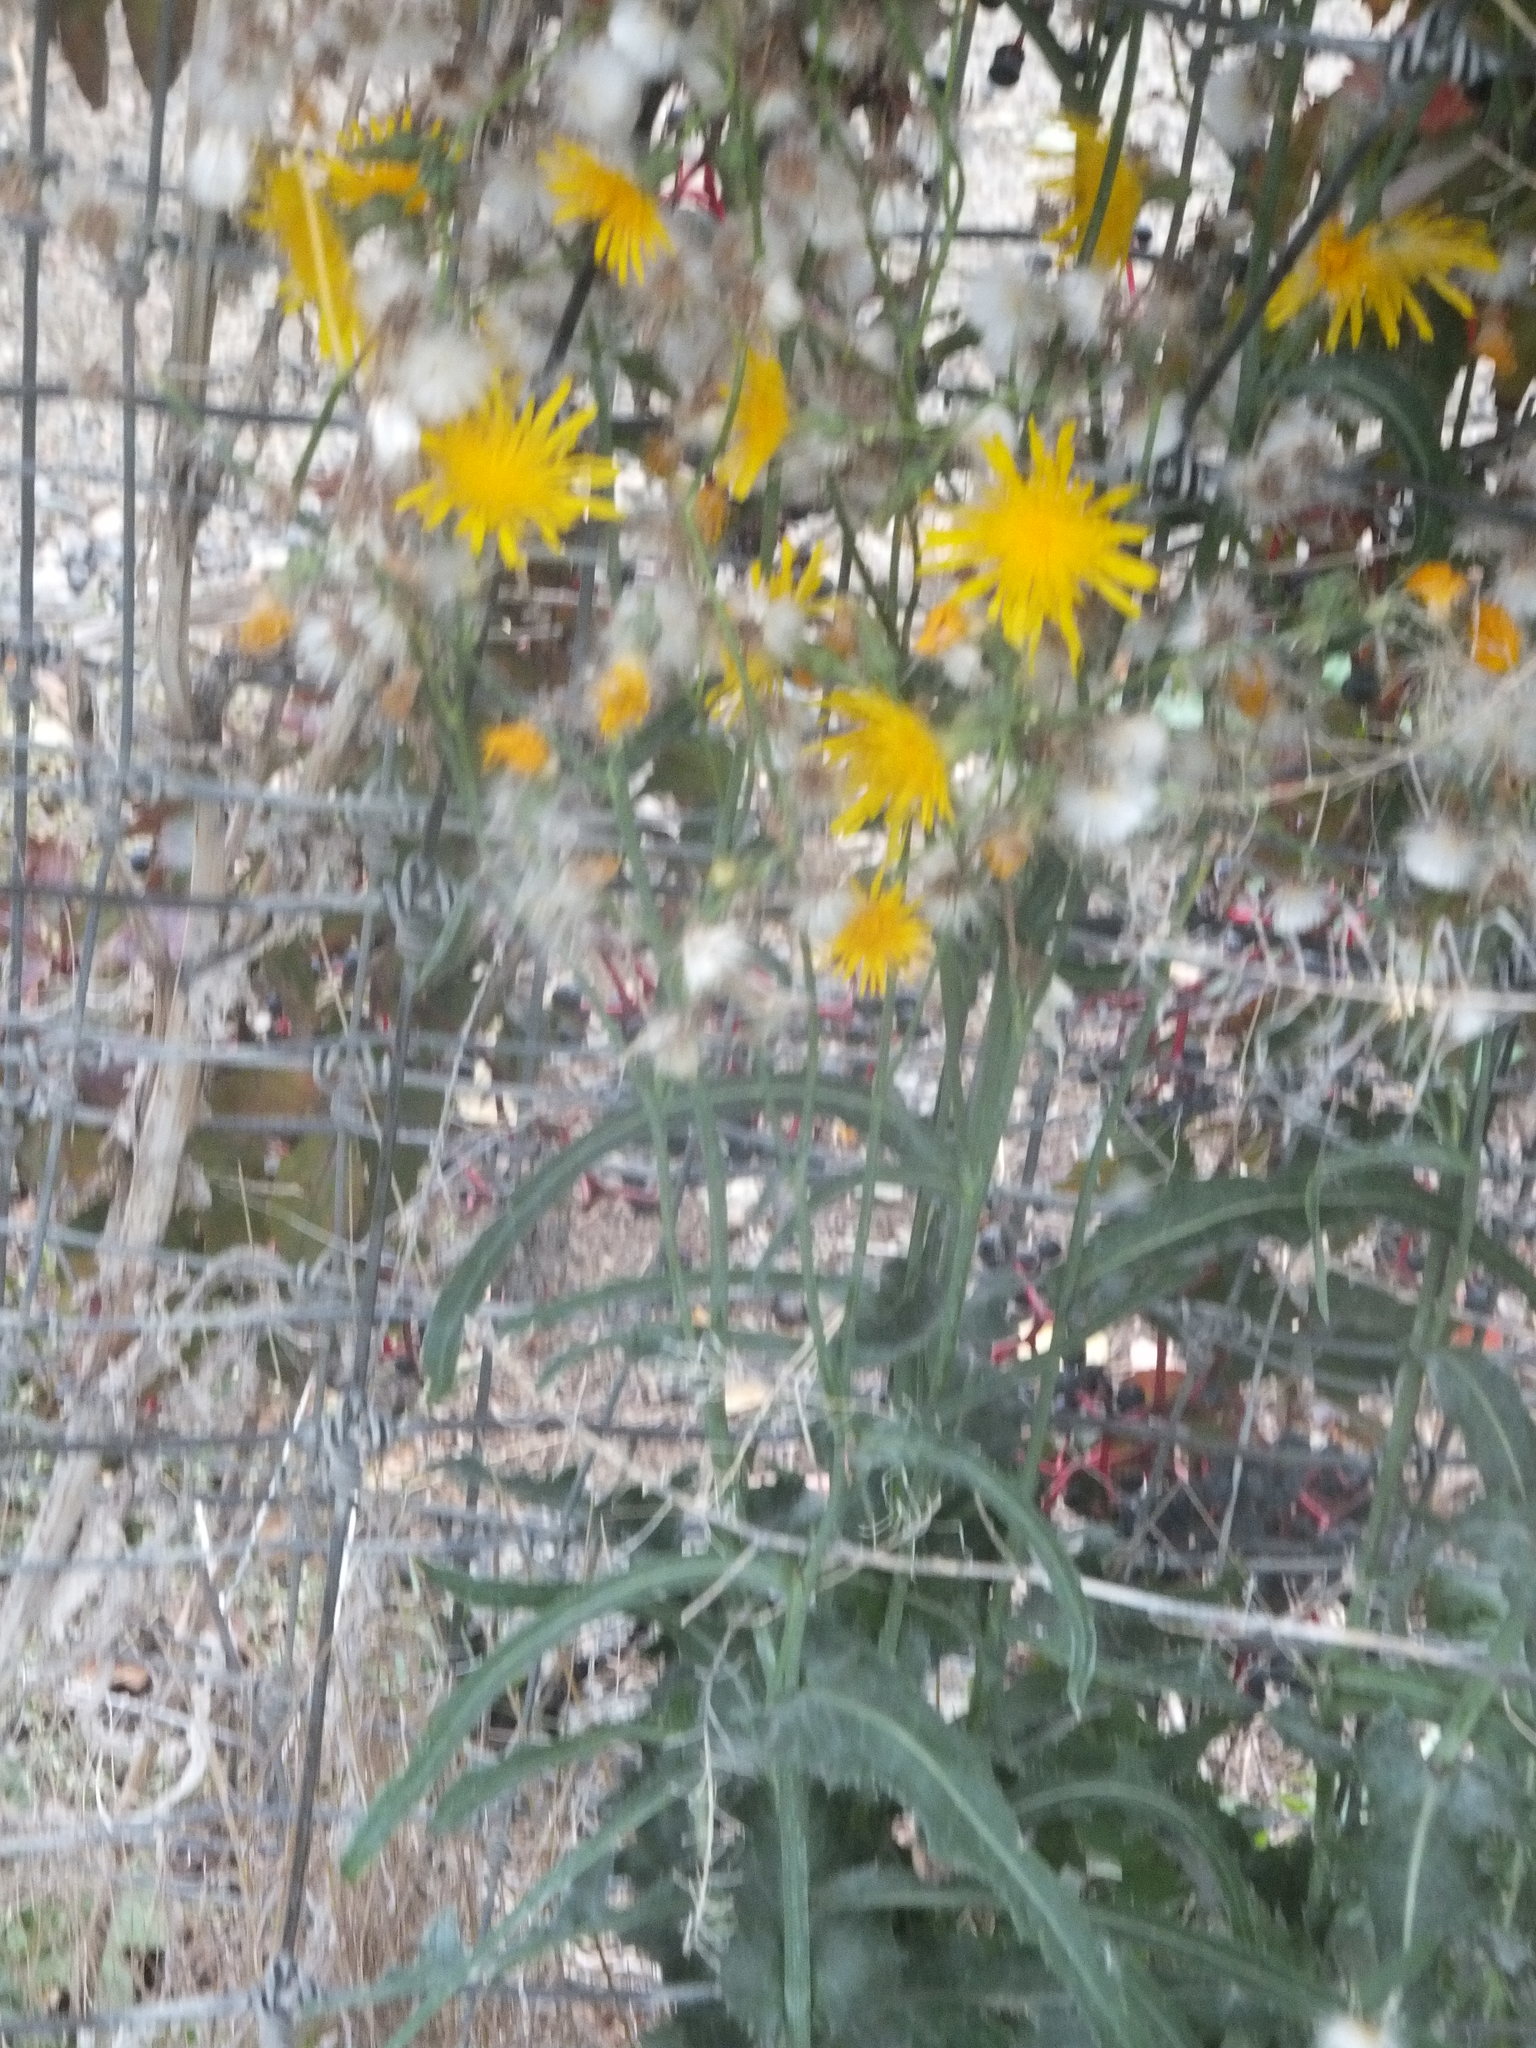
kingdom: Plantae
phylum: Tracheophyta
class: Magnoliopsida
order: Asterales
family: Asteraceae
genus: Sonchus
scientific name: Sonchus arvensis
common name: Perennial sow-thistle
